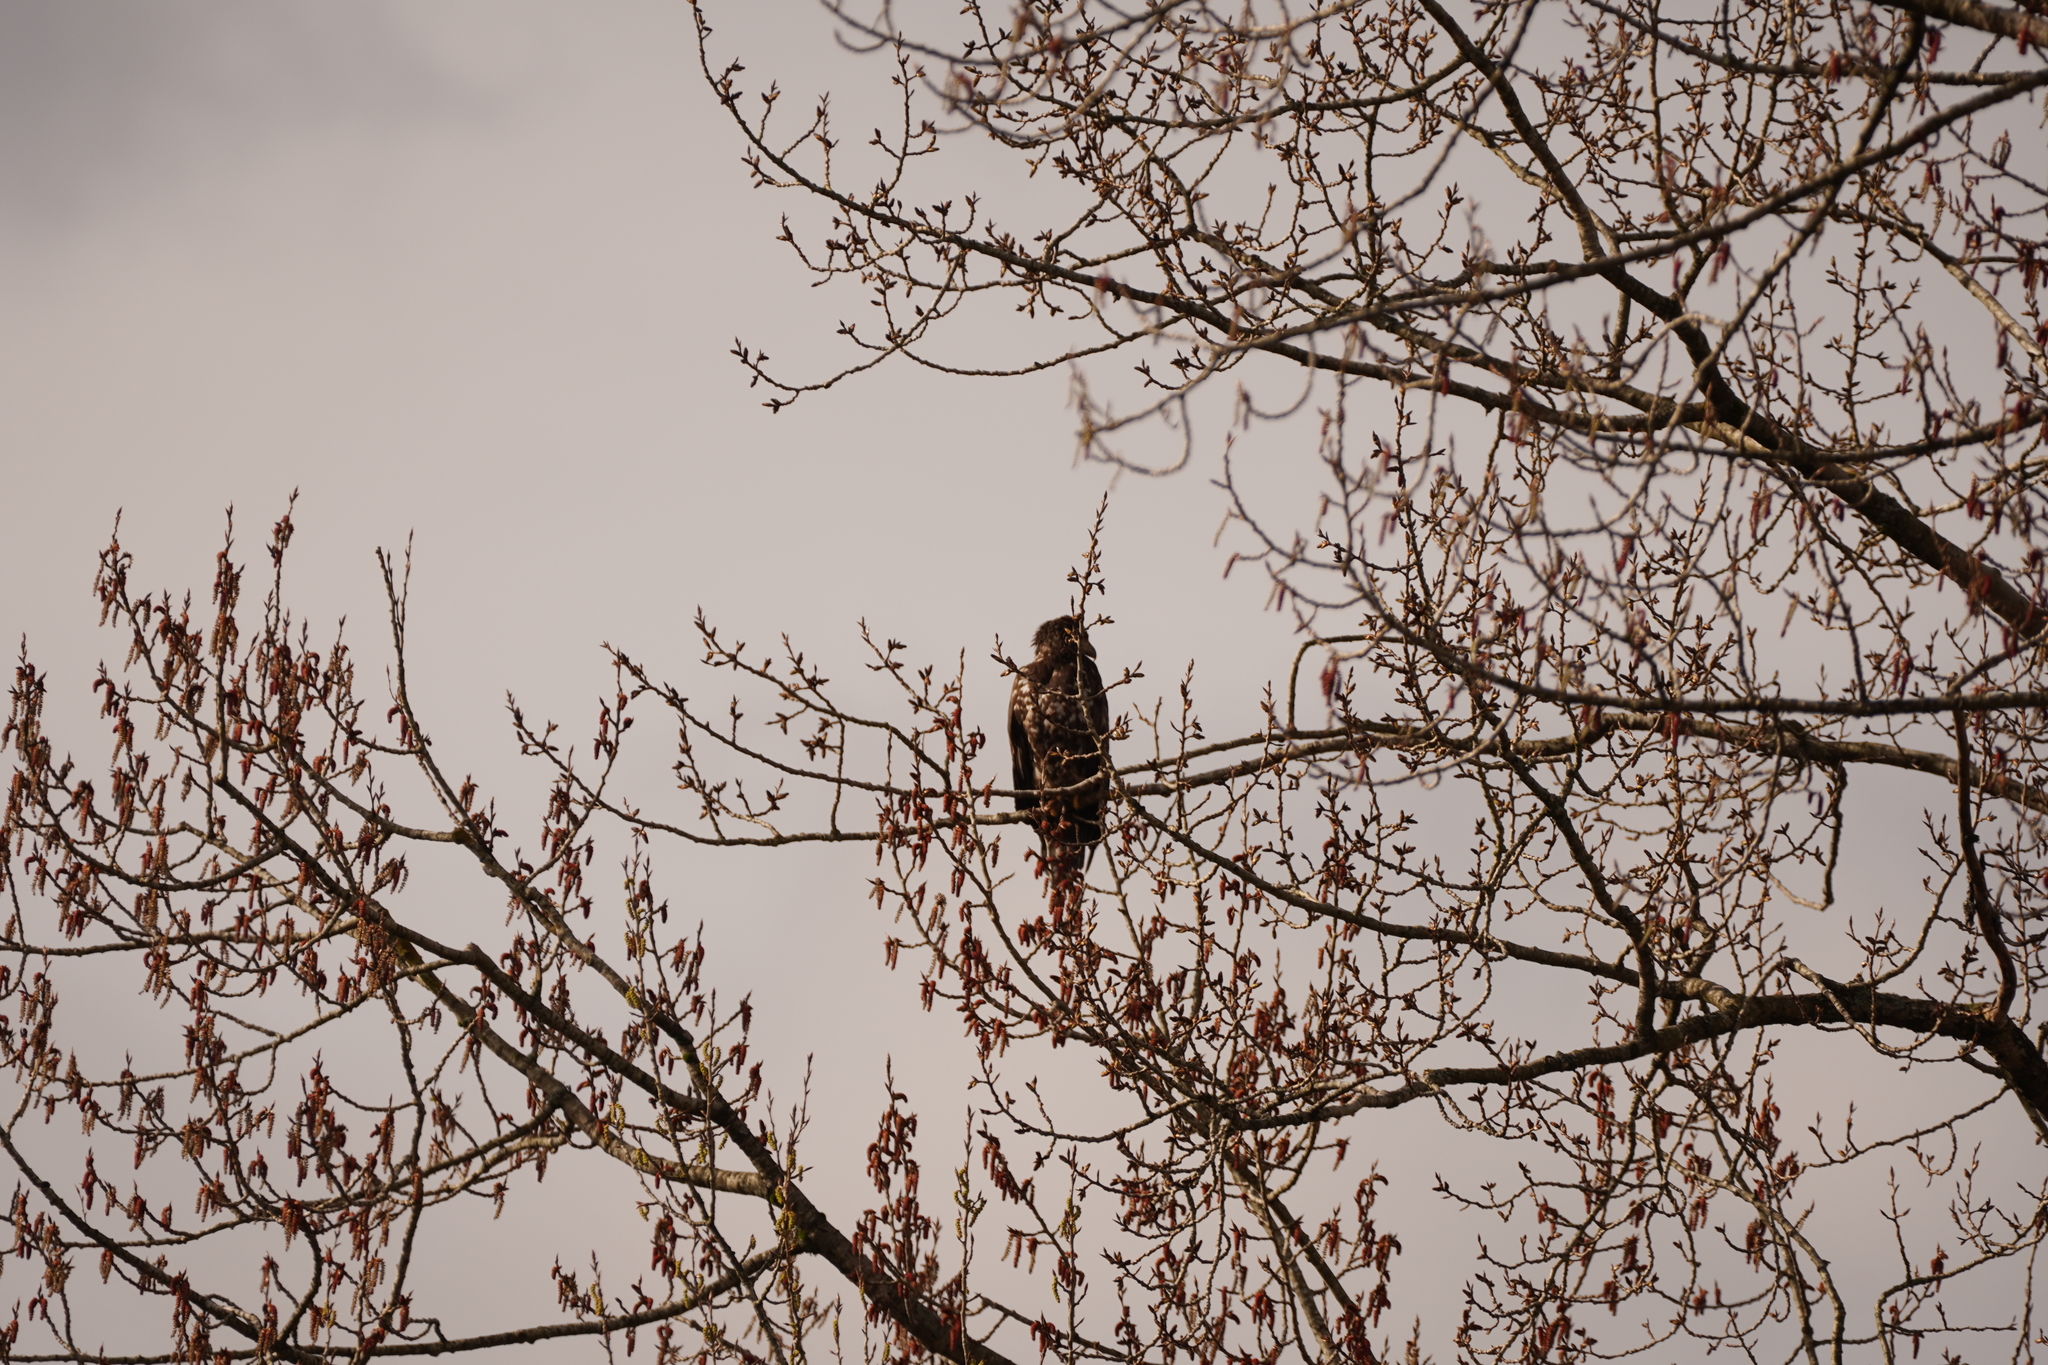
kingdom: Animalia
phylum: Chordata
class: Aves
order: Accipitriformes
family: Accipitridae
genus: Haliaeetus
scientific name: Haliaeetus leucocephalus
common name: Bald eagle
